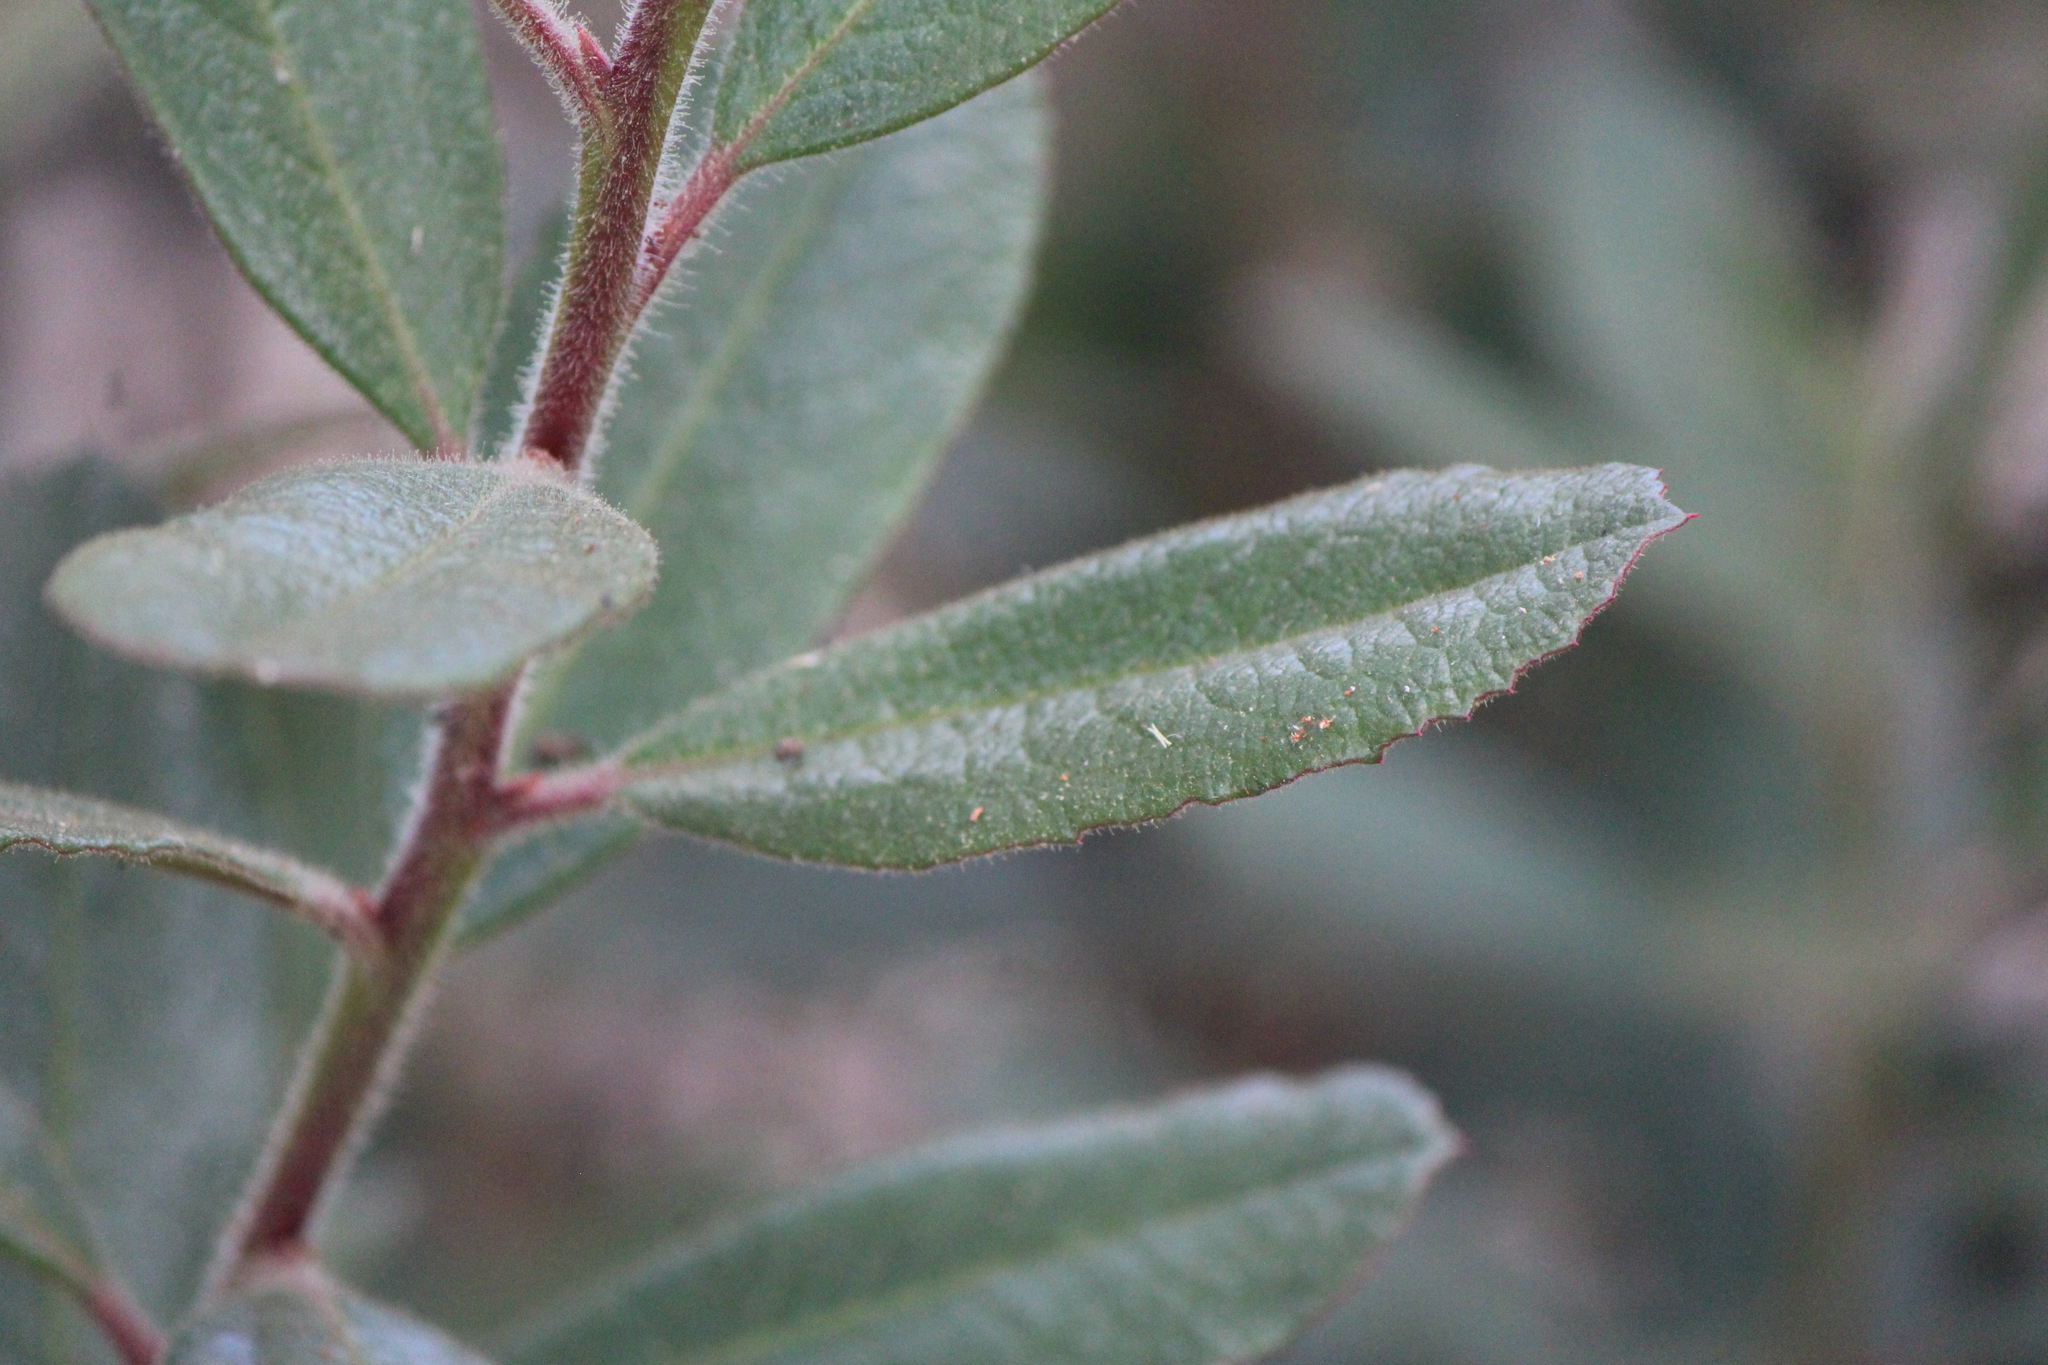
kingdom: Plantae
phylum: Tracheophyta
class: Magnoliopsida
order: Ericales
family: Ericaceae
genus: Comarostaphylis
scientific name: Comarostaphylis polifolia
